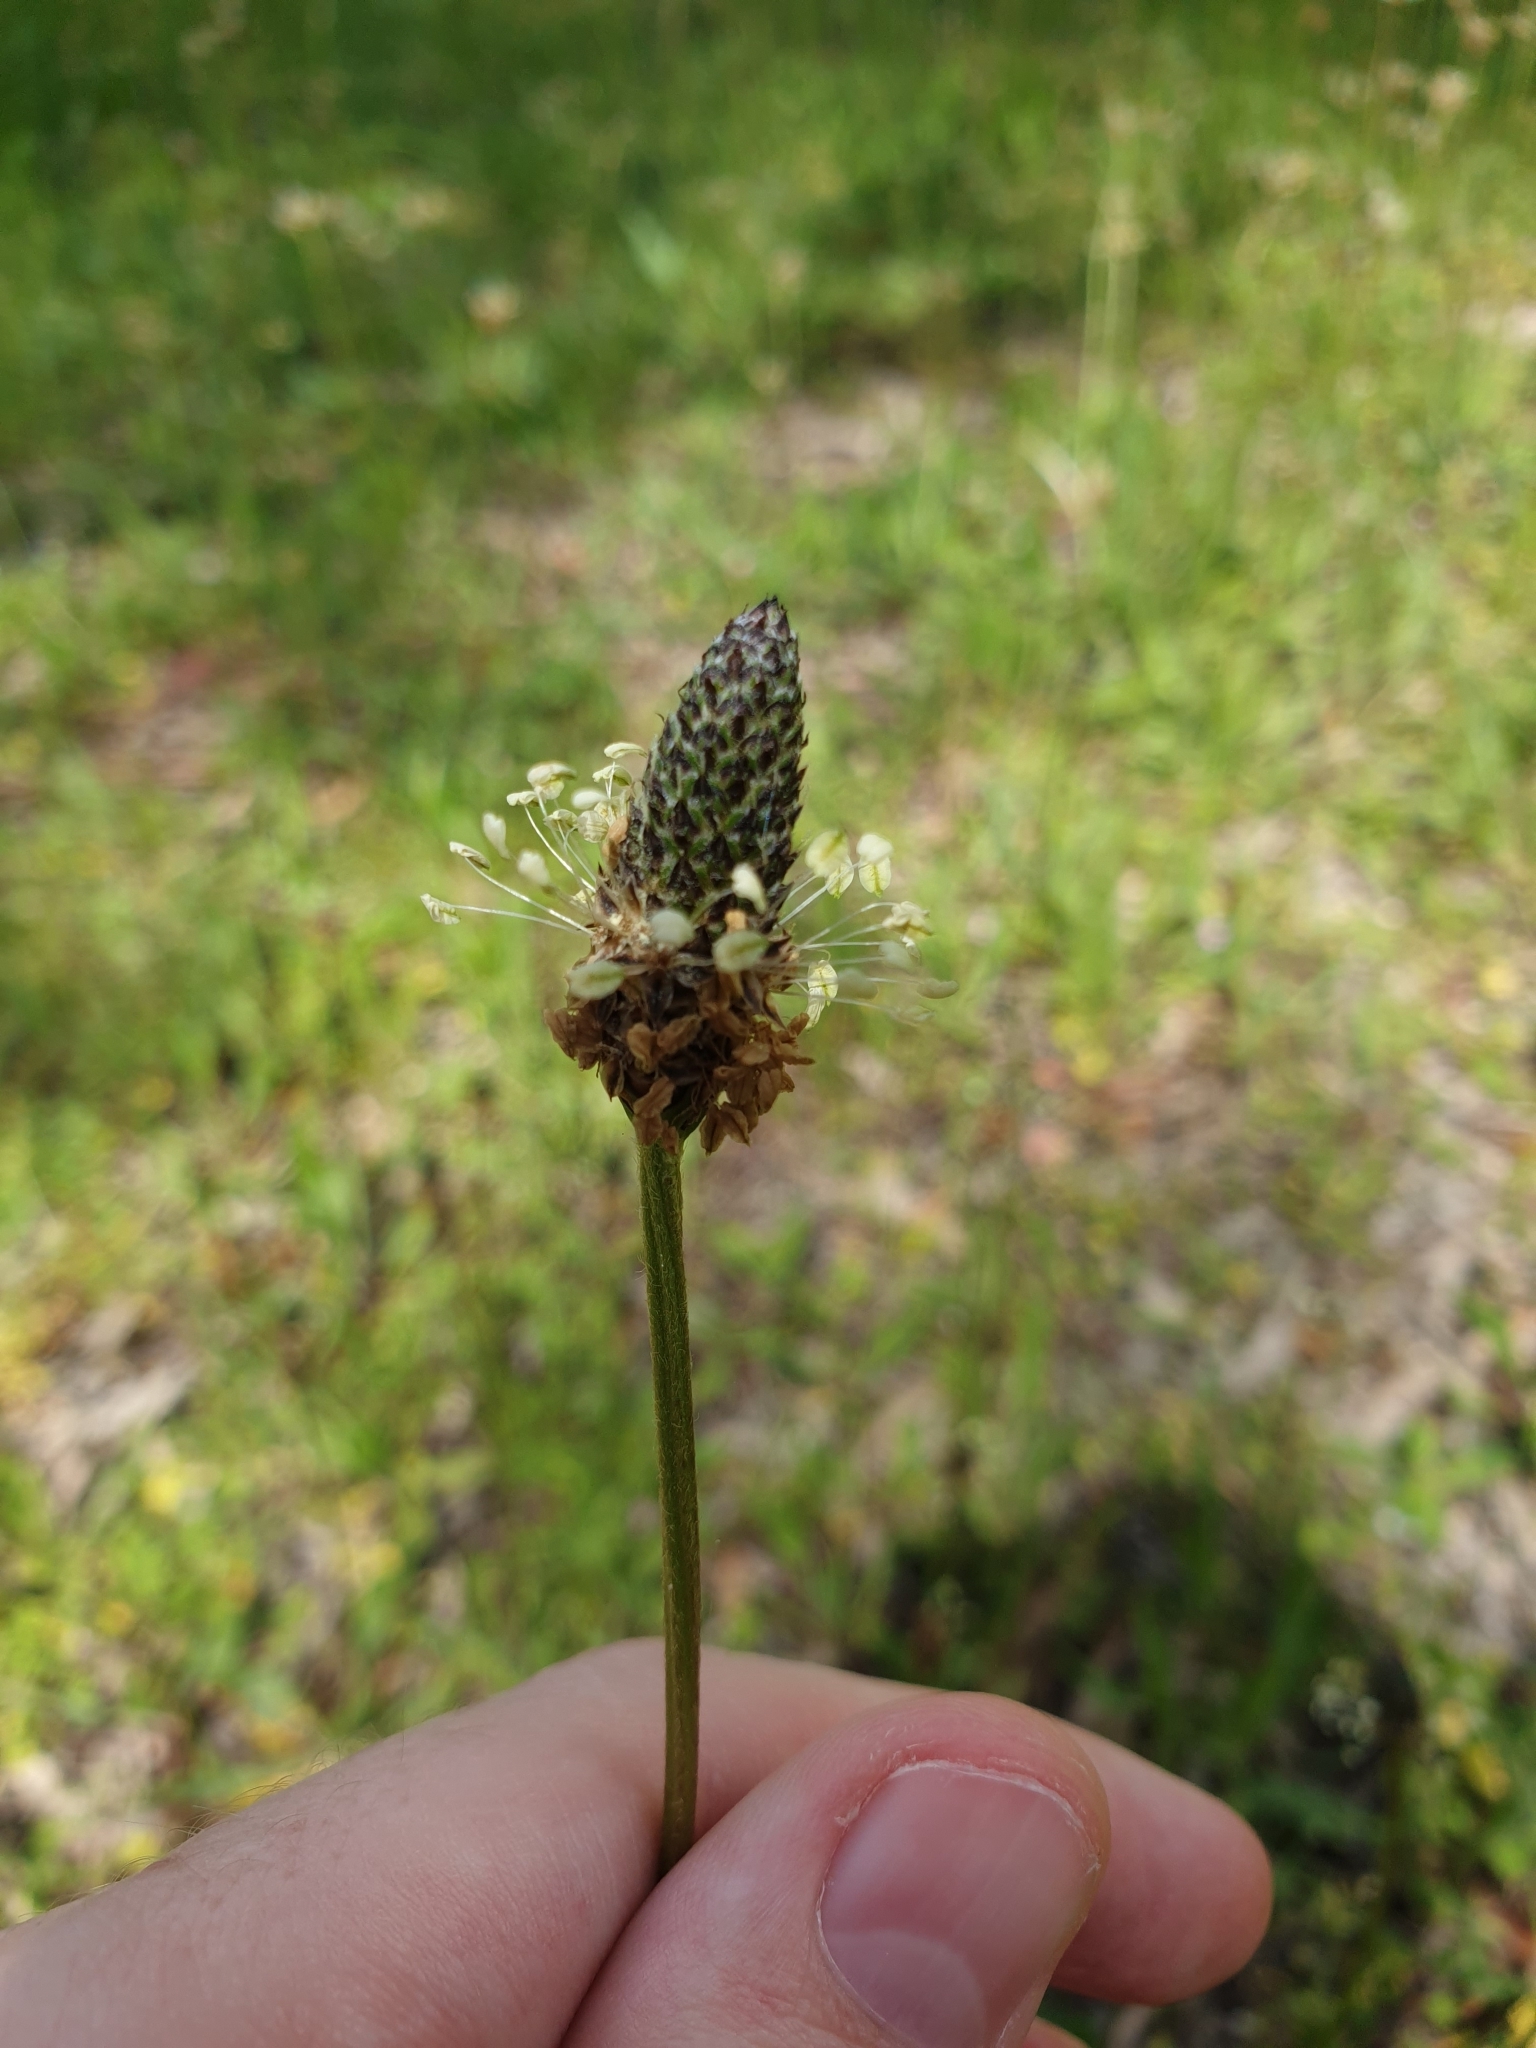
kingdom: Plantae
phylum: Tracheophyta
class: Magnoliopsida
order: Lamiales
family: Plantaginaceae
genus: Plantago
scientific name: Plantago lanceolata
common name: Ribwort plantain
